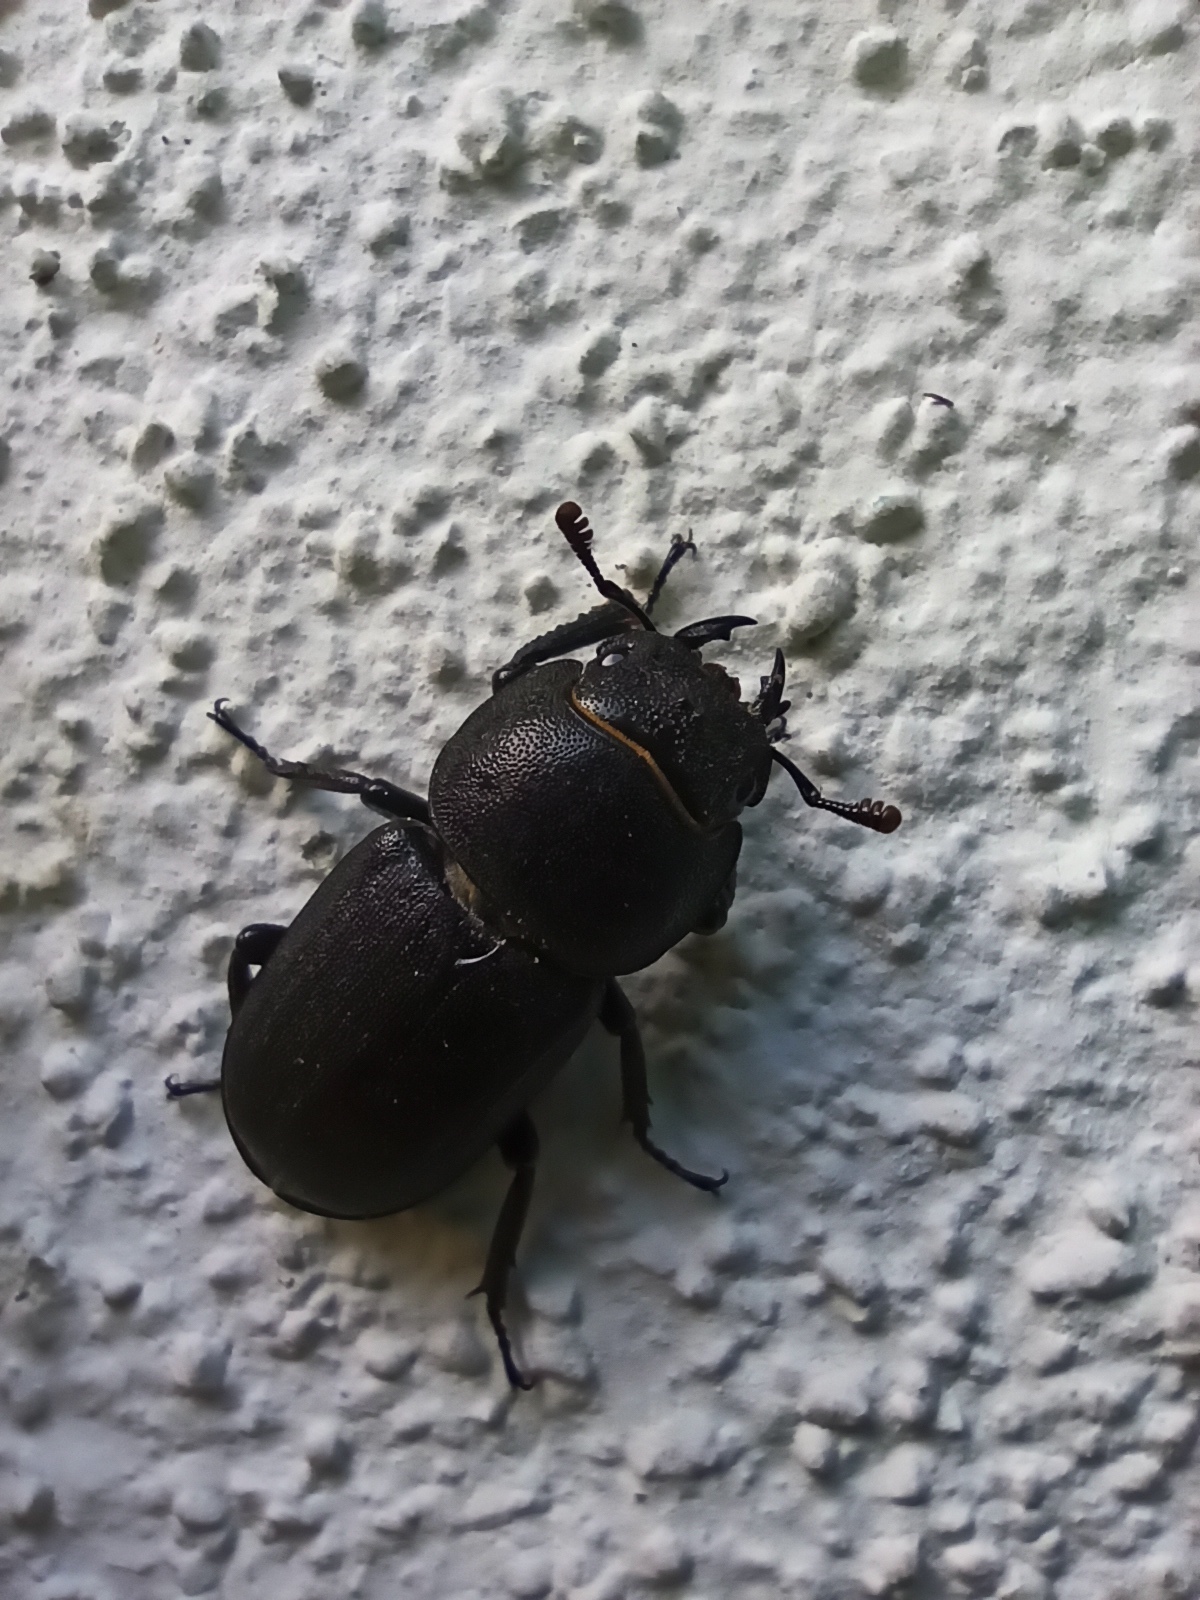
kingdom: Animalia
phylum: Arthropoda
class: Insecta
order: Coleoptera
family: Lucanidae
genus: Dorcus
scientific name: Dorcus parallelipipedus
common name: Lesser stag beetle
